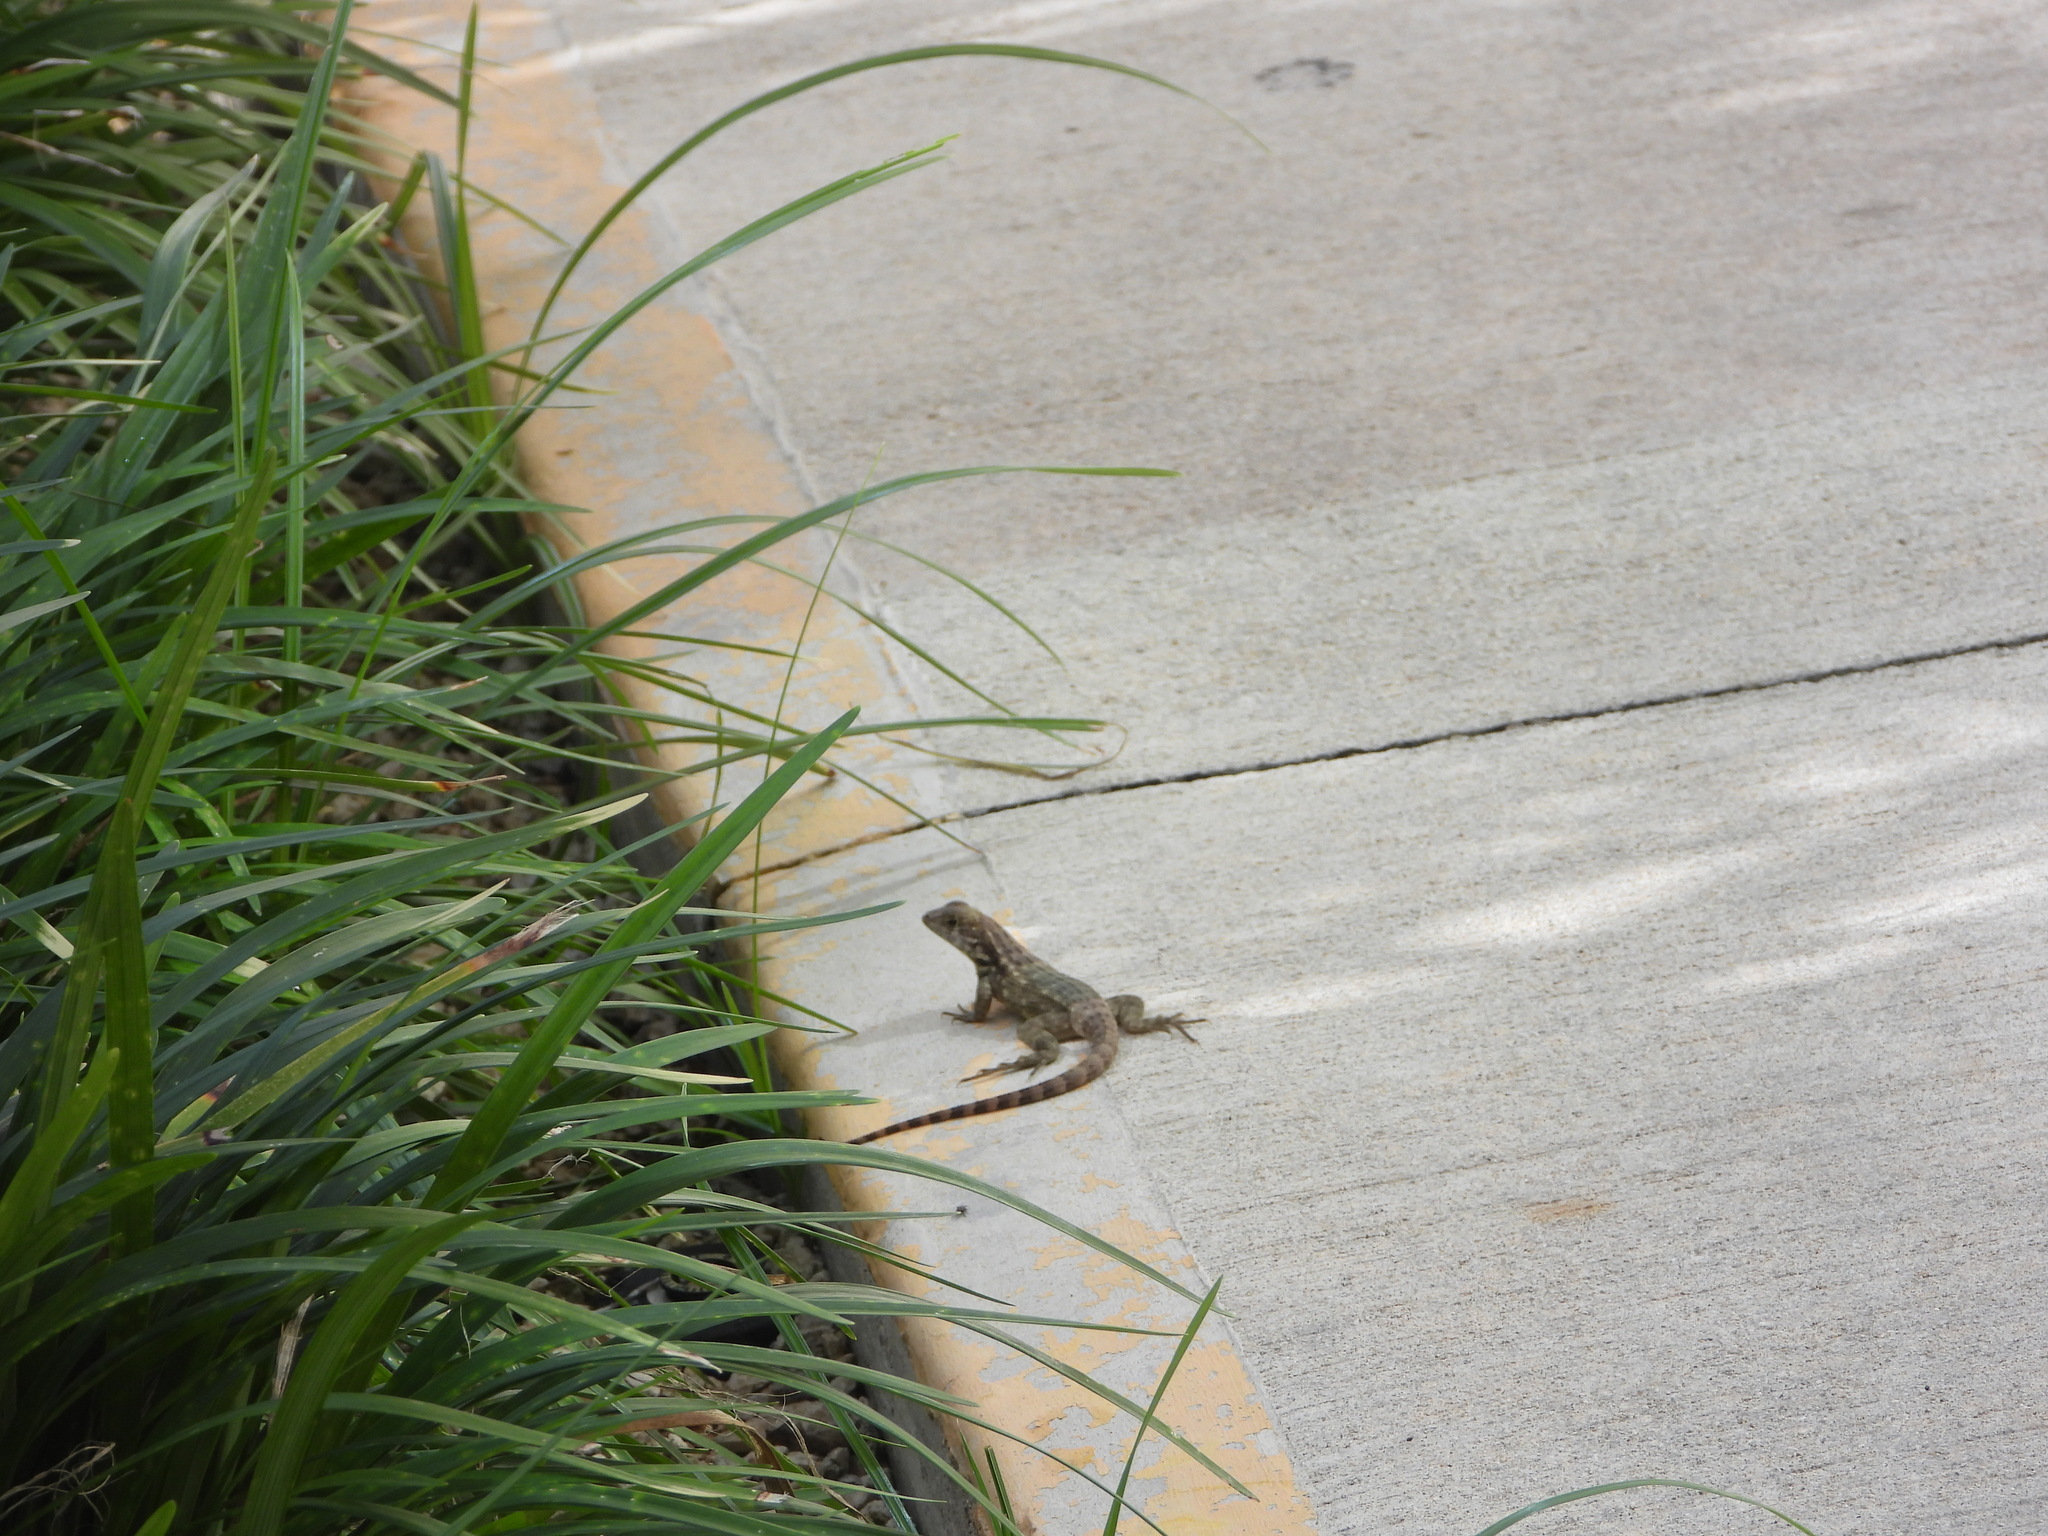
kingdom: Animalia
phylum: Chordata
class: Squamata
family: Leiocephalidae
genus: Leiocephalus
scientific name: Leiocephalus varius
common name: Cayman curlytail
